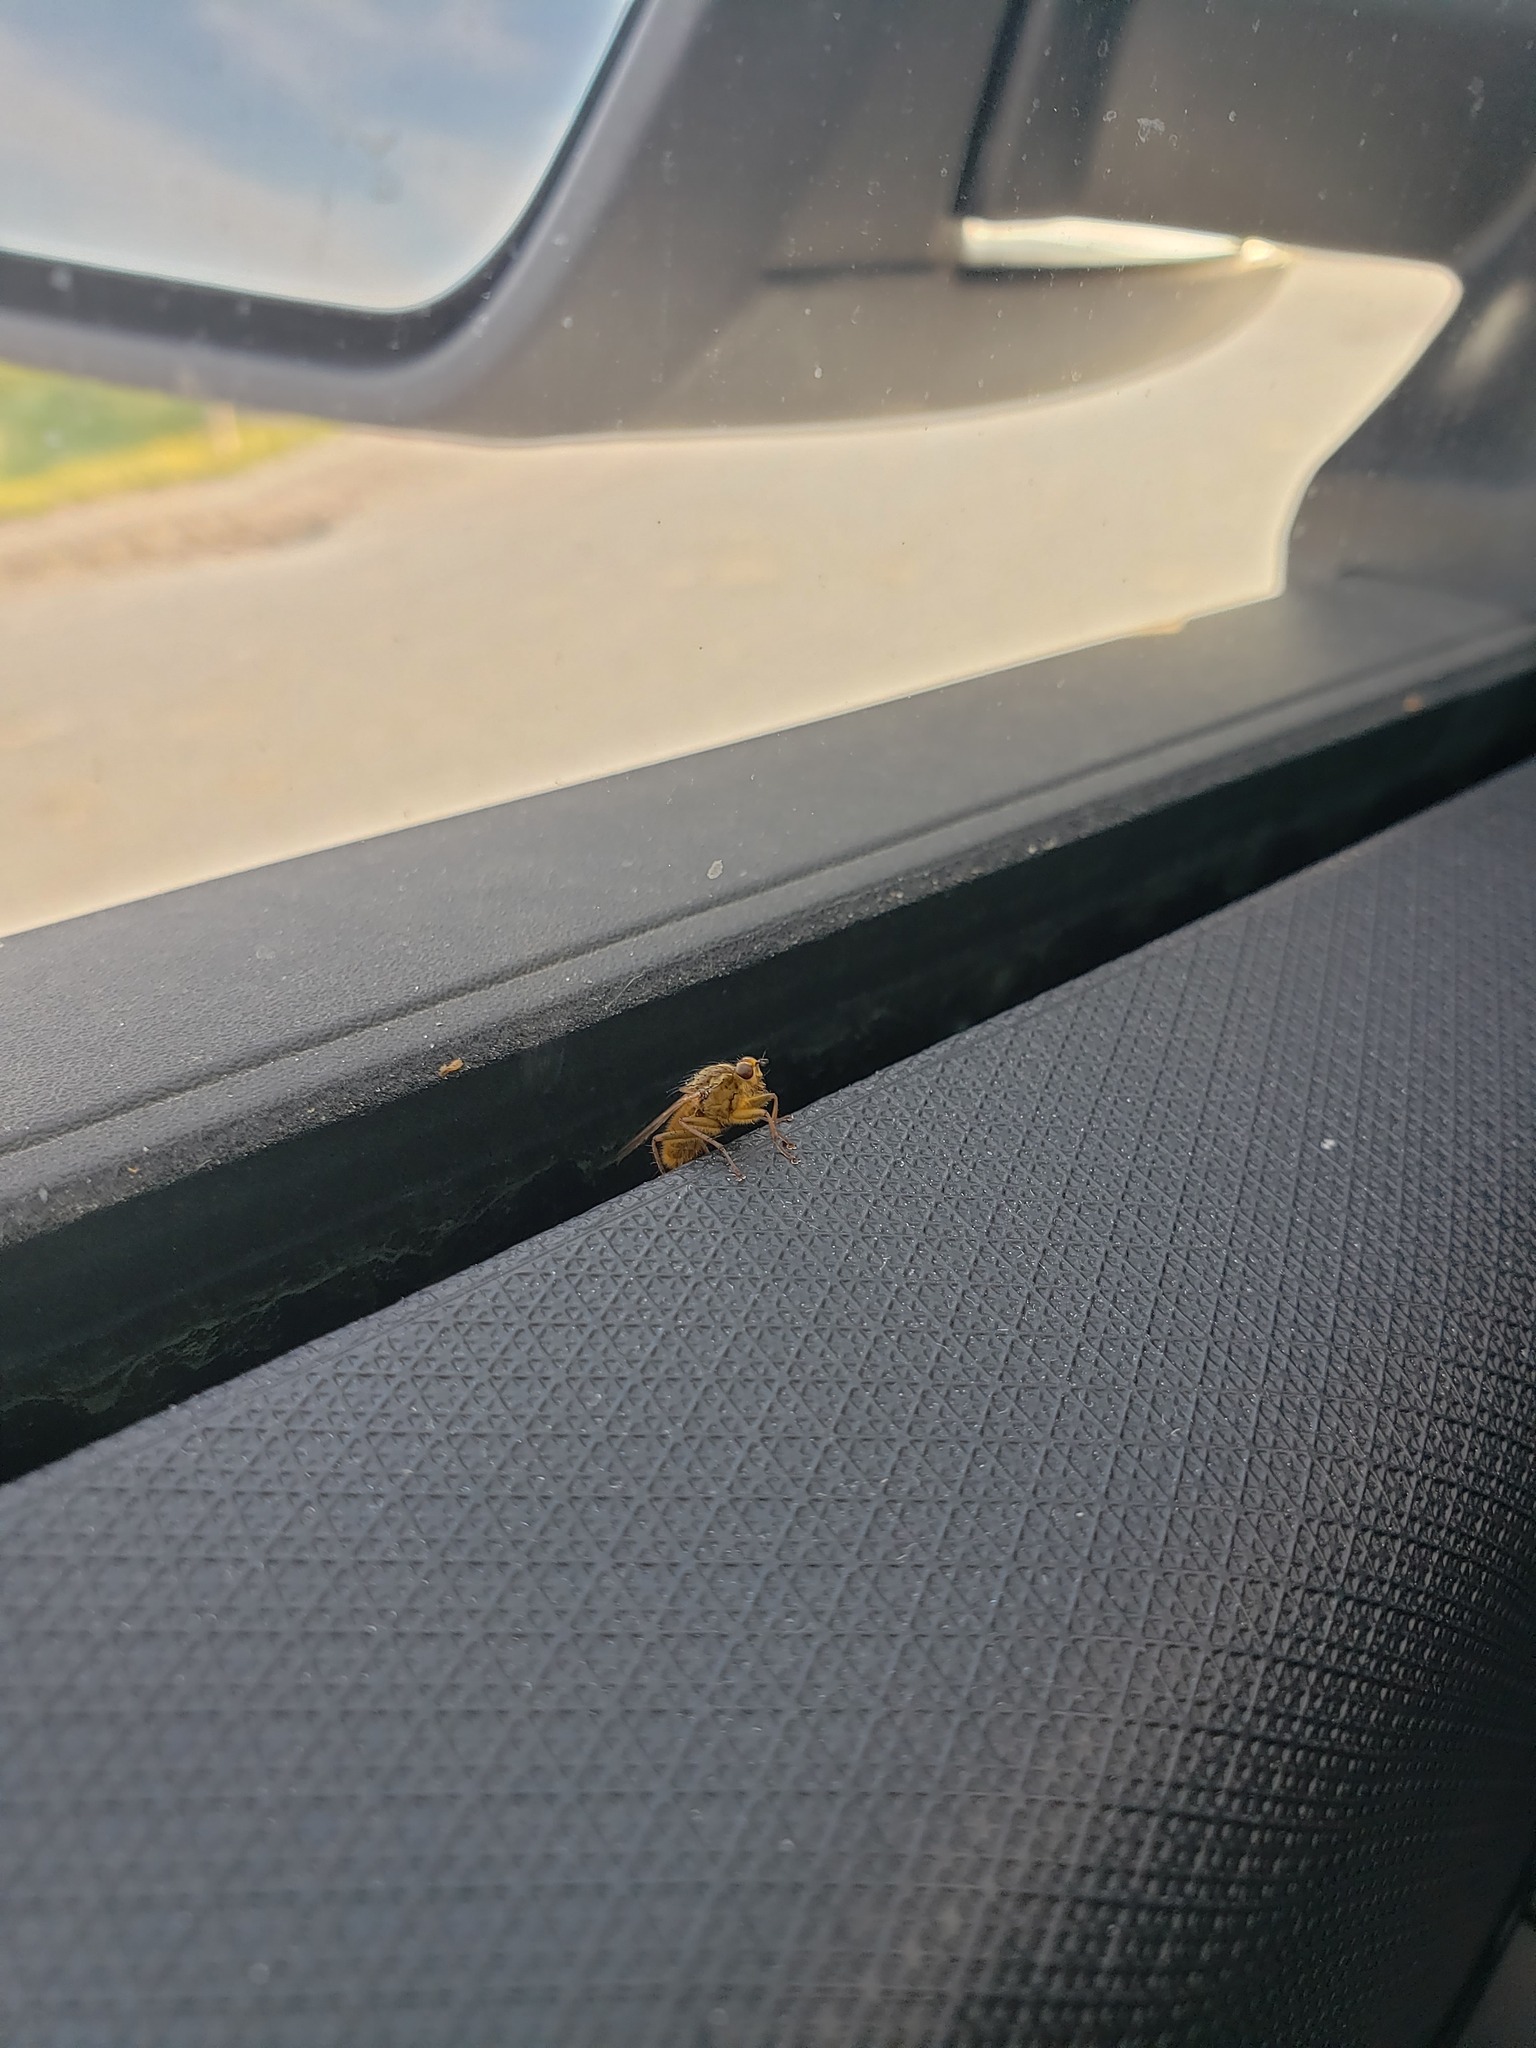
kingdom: Animalia
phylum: Arthropoda
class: Insecta
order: Diptera
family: Scathophagidae
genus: Scathophaga
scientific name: Scathophaga stercoraria
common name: Yellow dung fly
